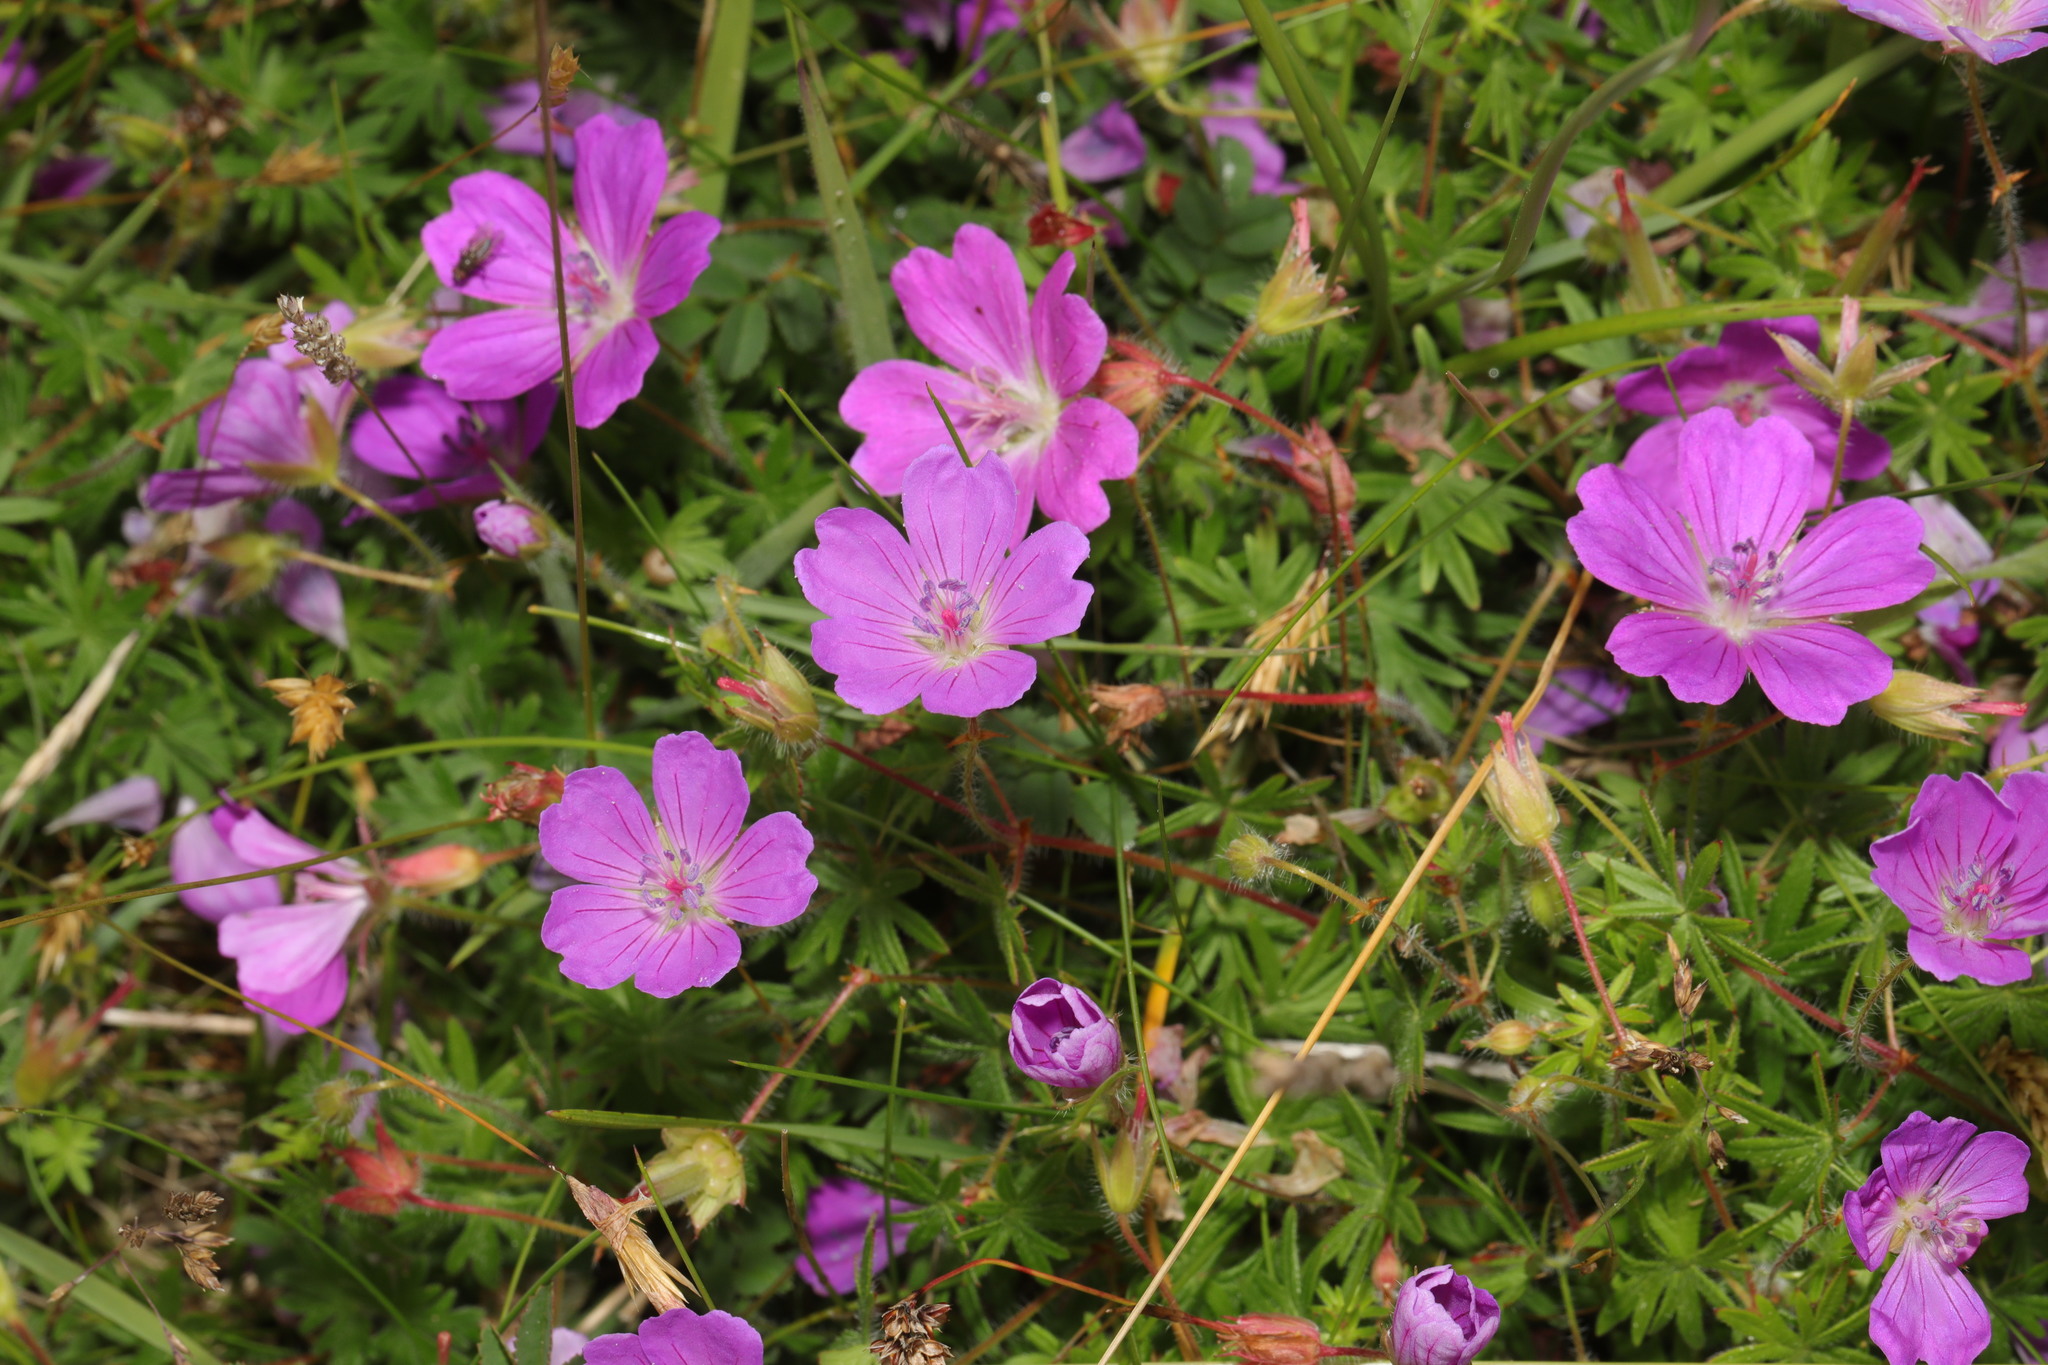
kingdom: Plantae
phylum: Tracheophyta
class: Magnoliopsida
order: Geraniales
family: Geraniaceae
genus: Geranium
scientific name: Geranium sanguineum
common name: Bloody crane's-bill
